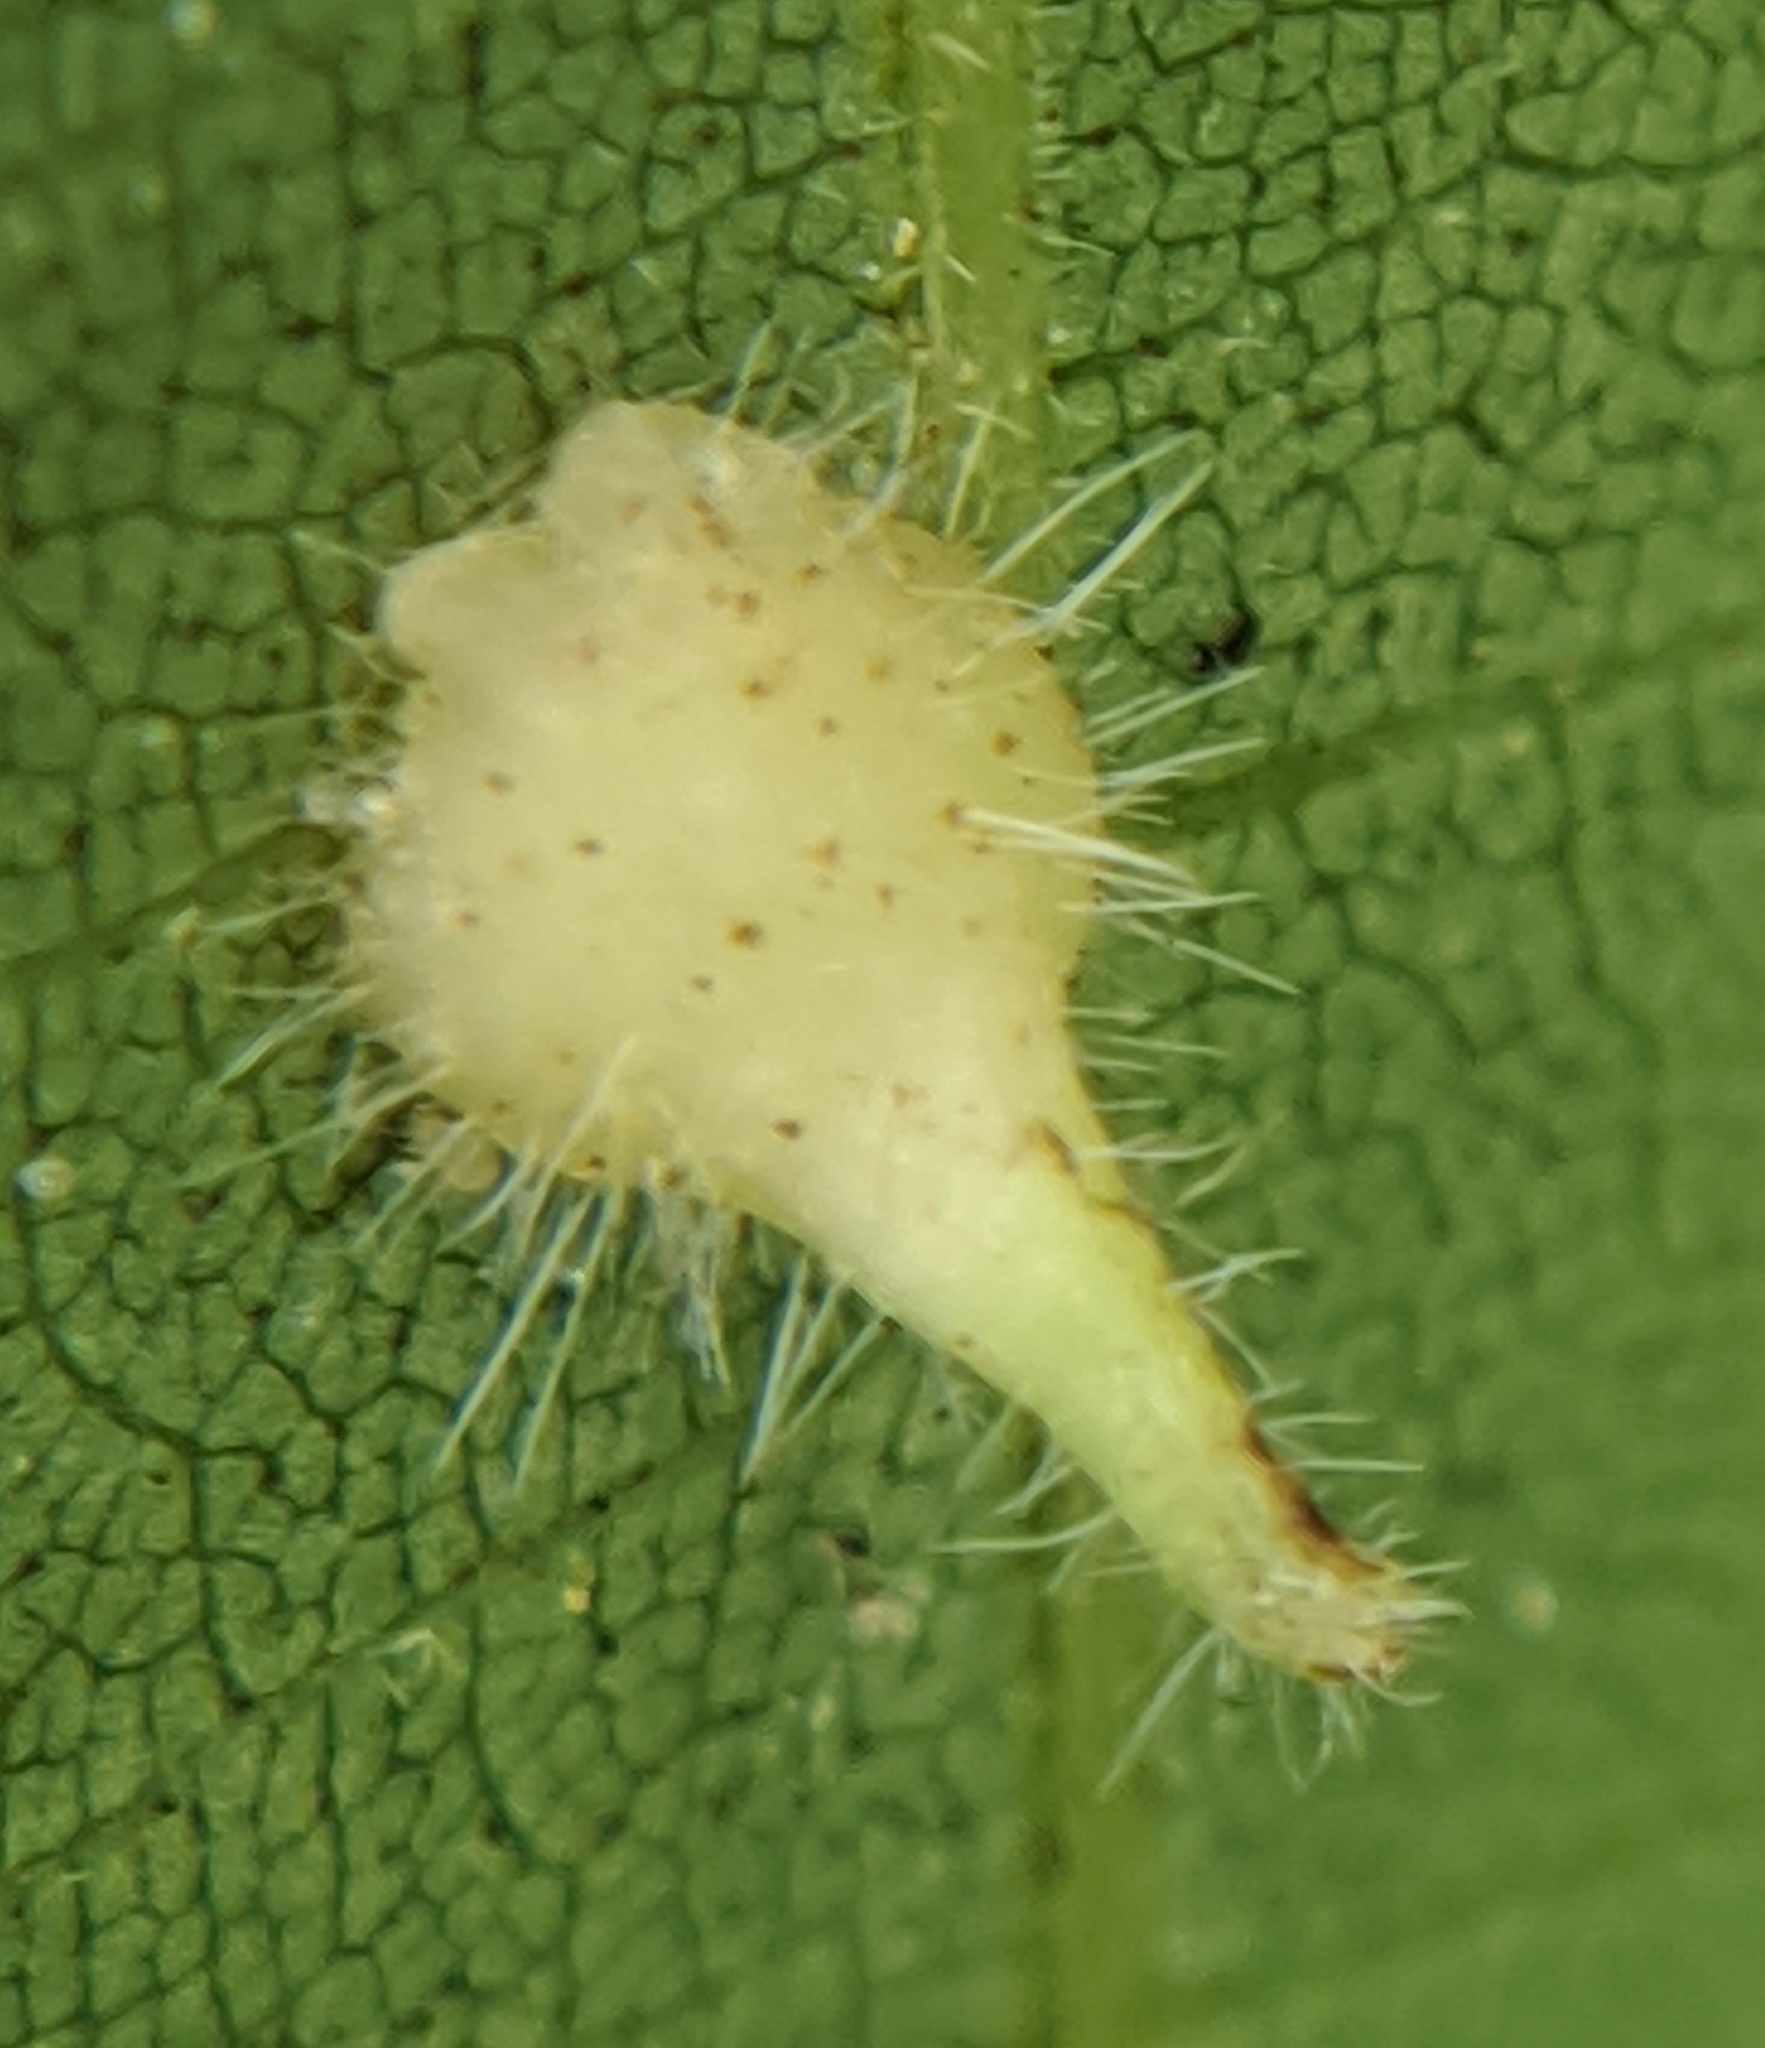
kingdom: Animalia
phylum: Arthropoda
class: Insecta
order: Diptera
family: Cecidomyiidae
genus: Caryomyia
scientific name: Caryomyia inclinata
